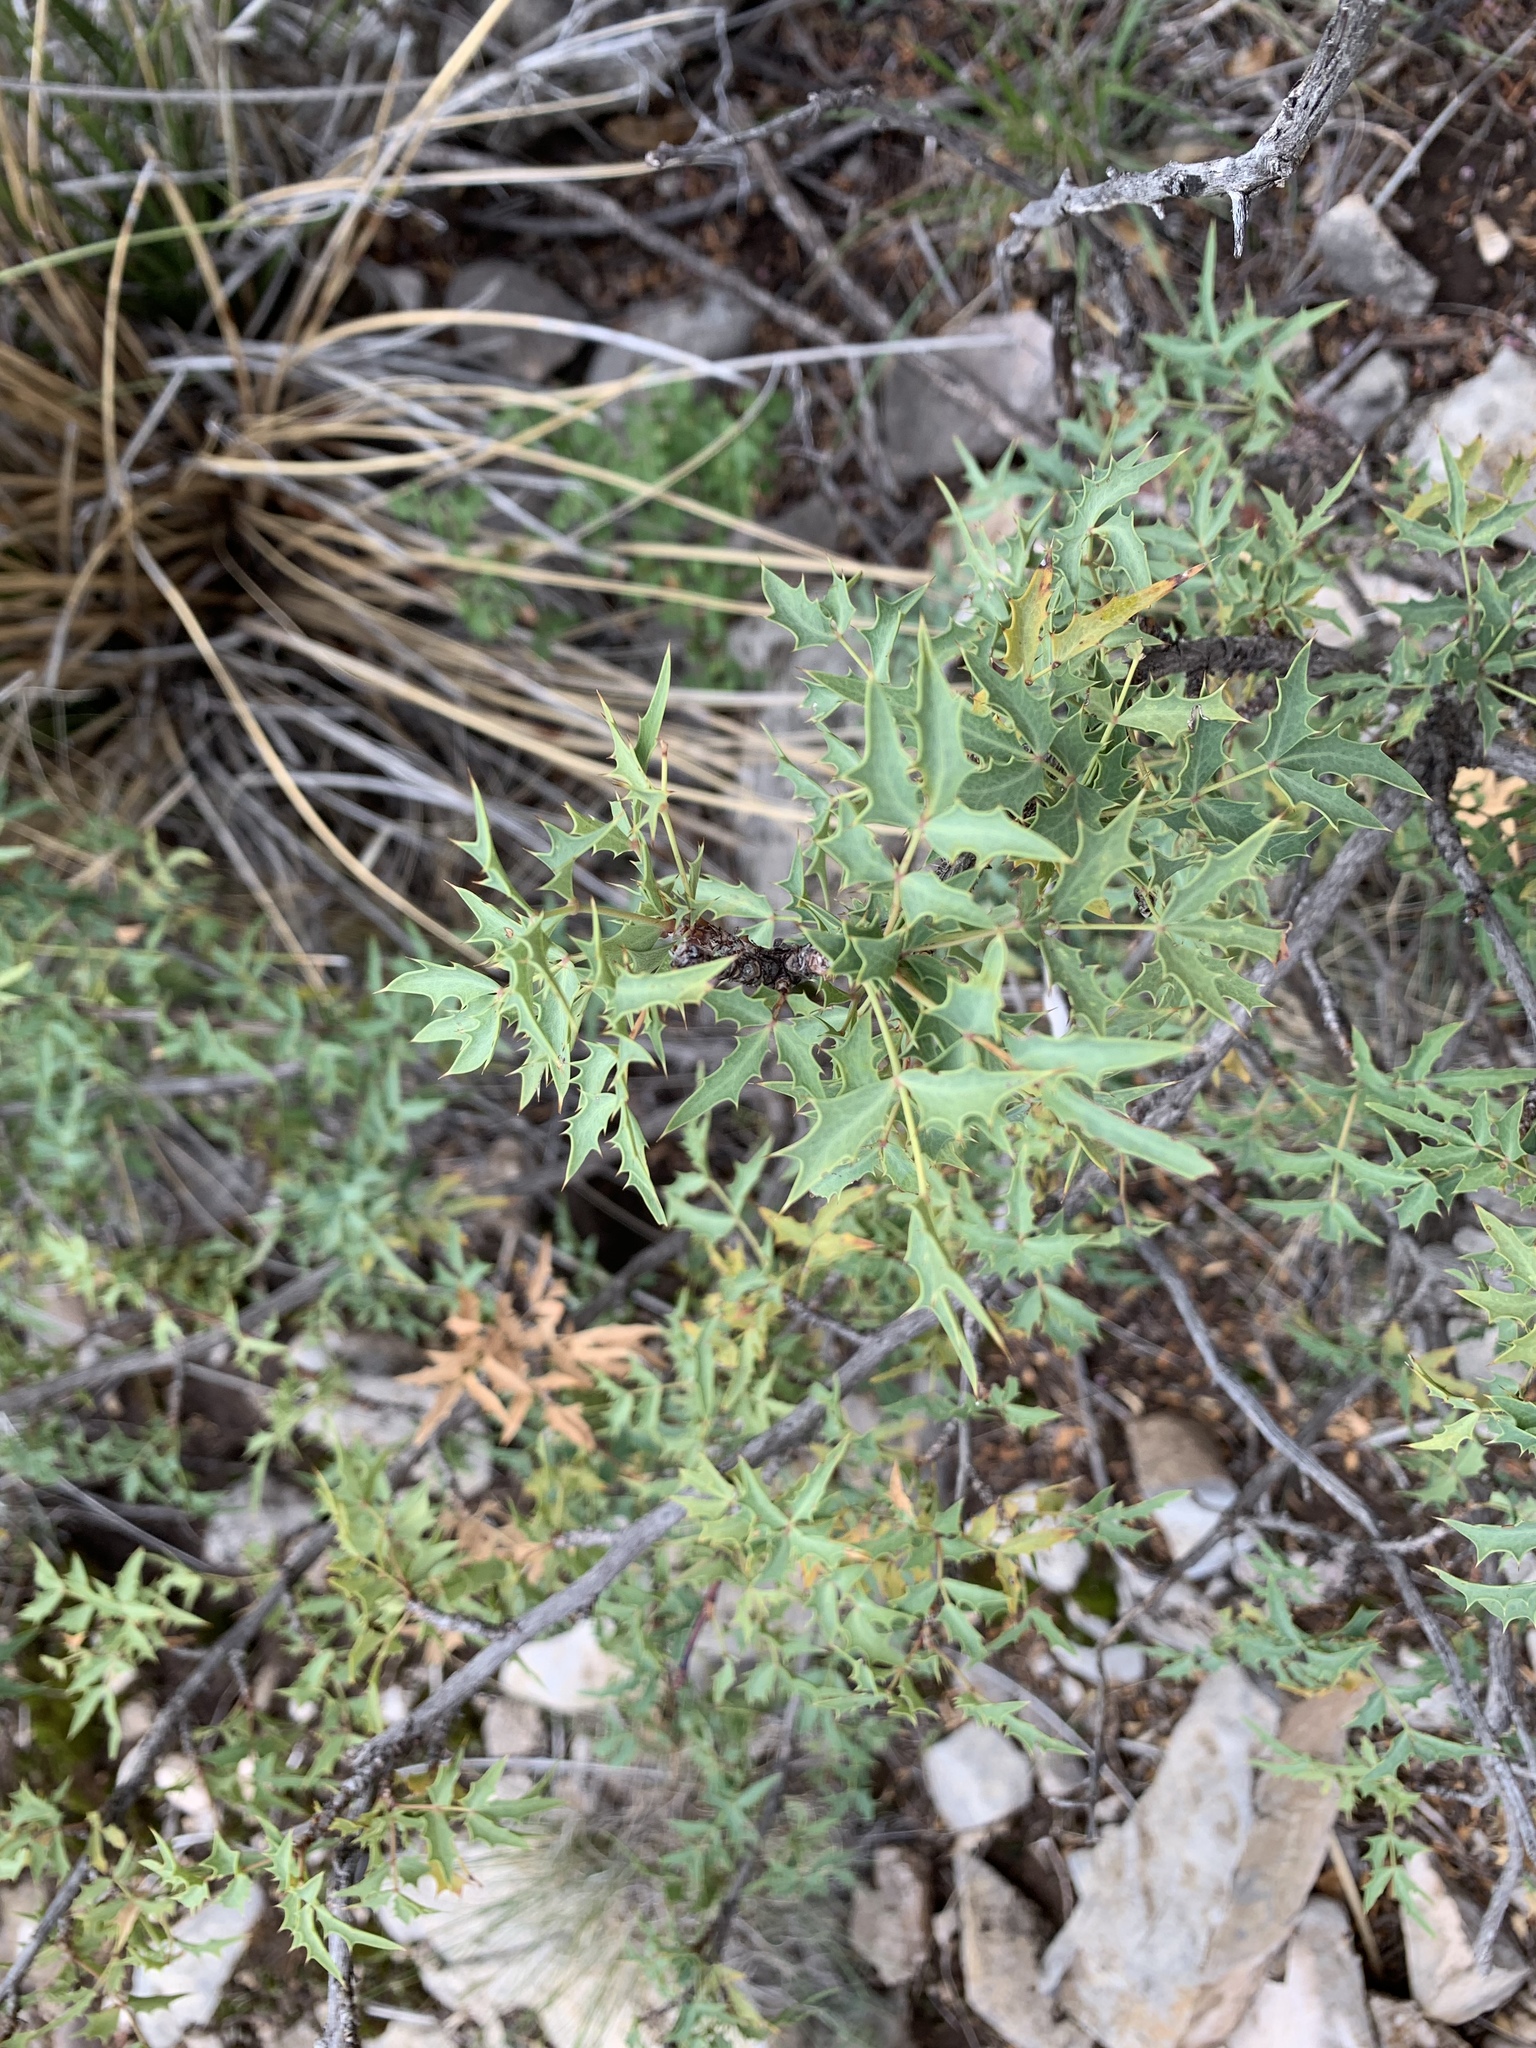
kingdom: Plantae
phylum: Tracheophyta
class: Magnoliopsida
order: Ranunculales
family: Berberidaceae
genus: Alloberberis
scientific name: Alloberberis haematocarpa
